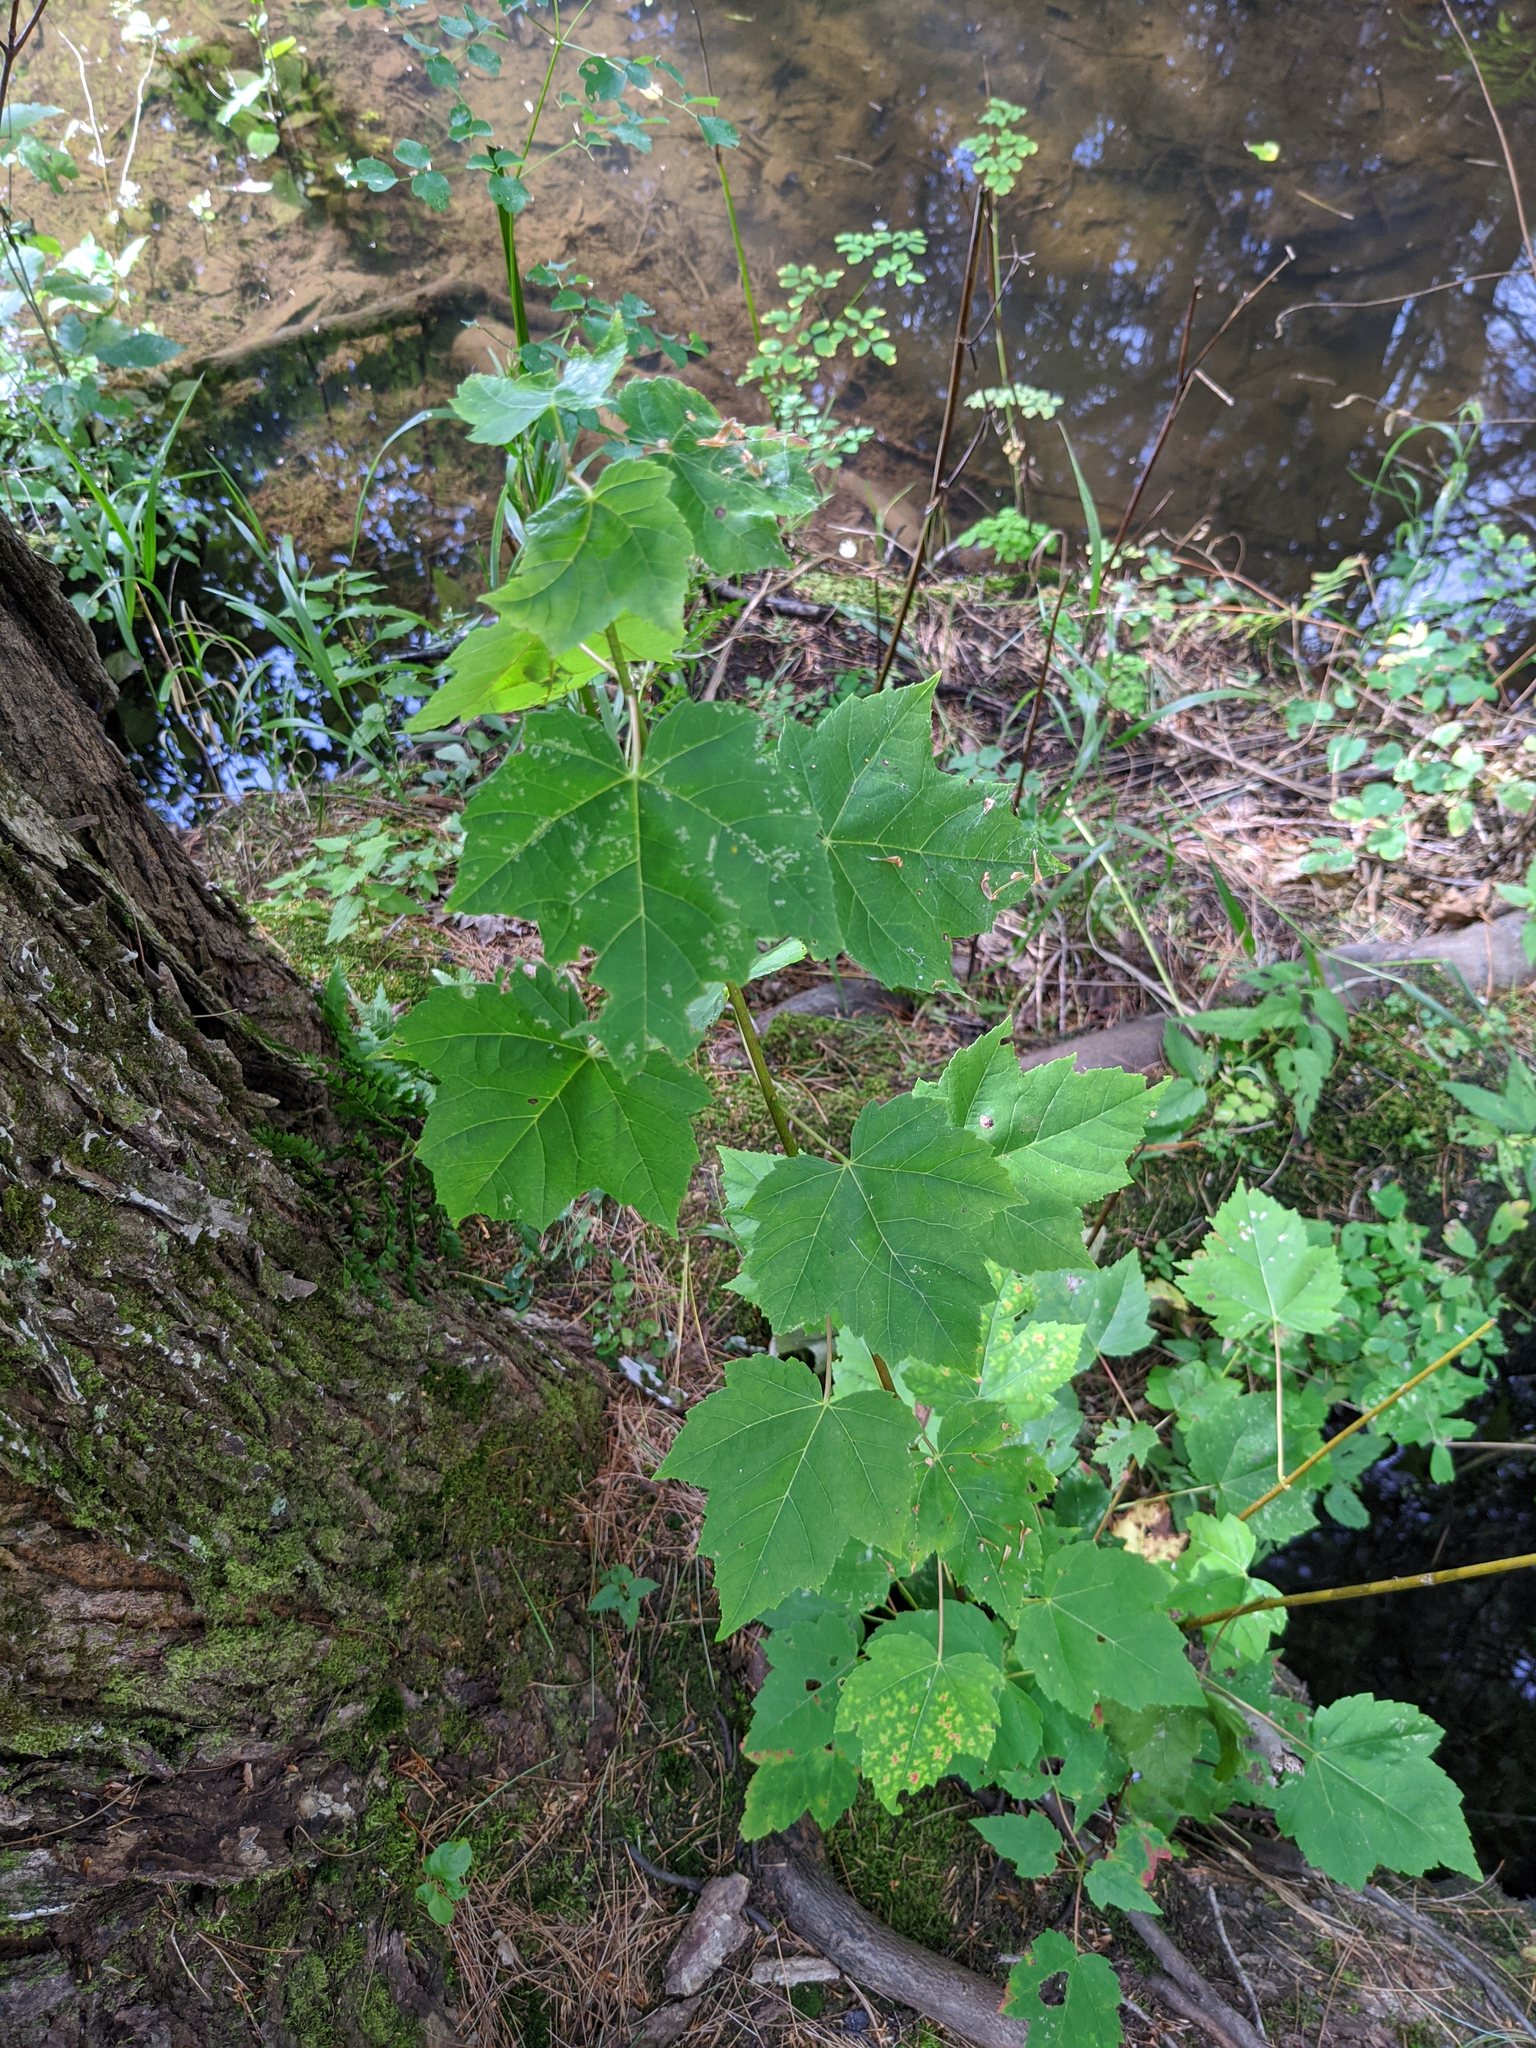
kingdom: Plantae
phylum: Tracheophyta
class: Magnoliopsida
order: Sapindales
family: Sapindaceae
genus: Acer
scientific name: Acer rubrum
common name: Red maple
